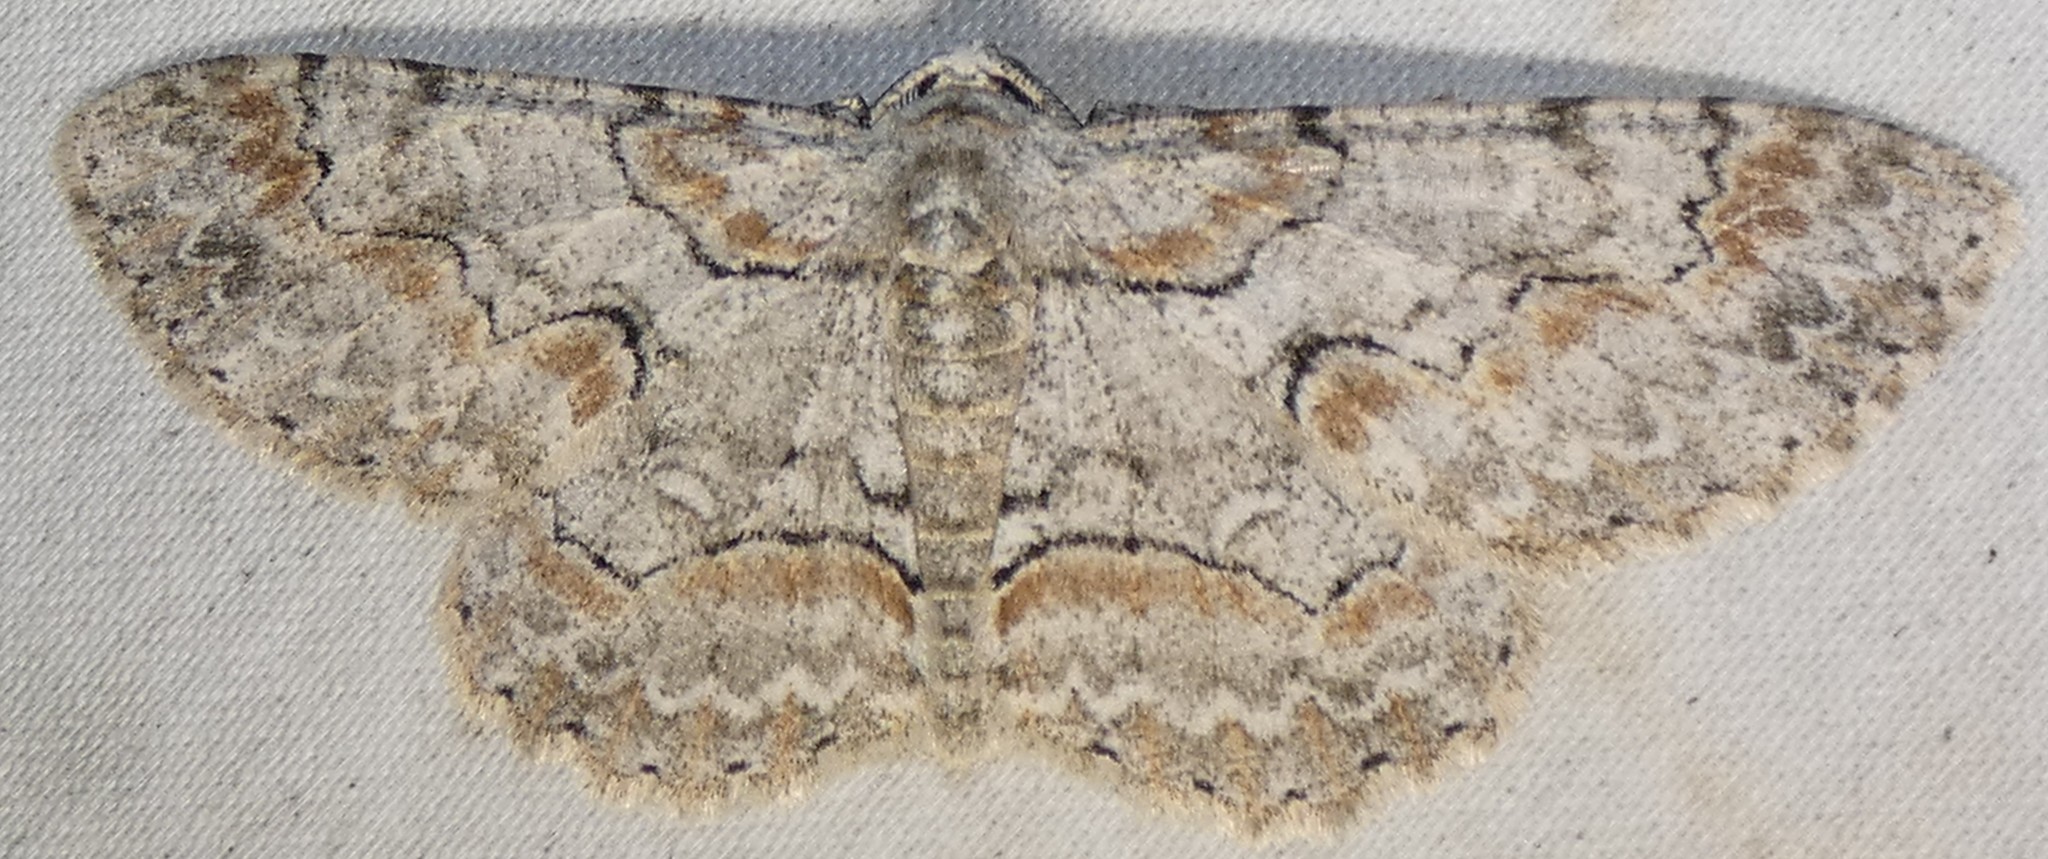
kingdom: Animalia
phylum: Arthropoda
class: Insecta
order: Lepidoptera
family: Geometridae
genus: Iridopsis
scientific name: Iridopsis defectaria
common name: Brown-shaded gray
